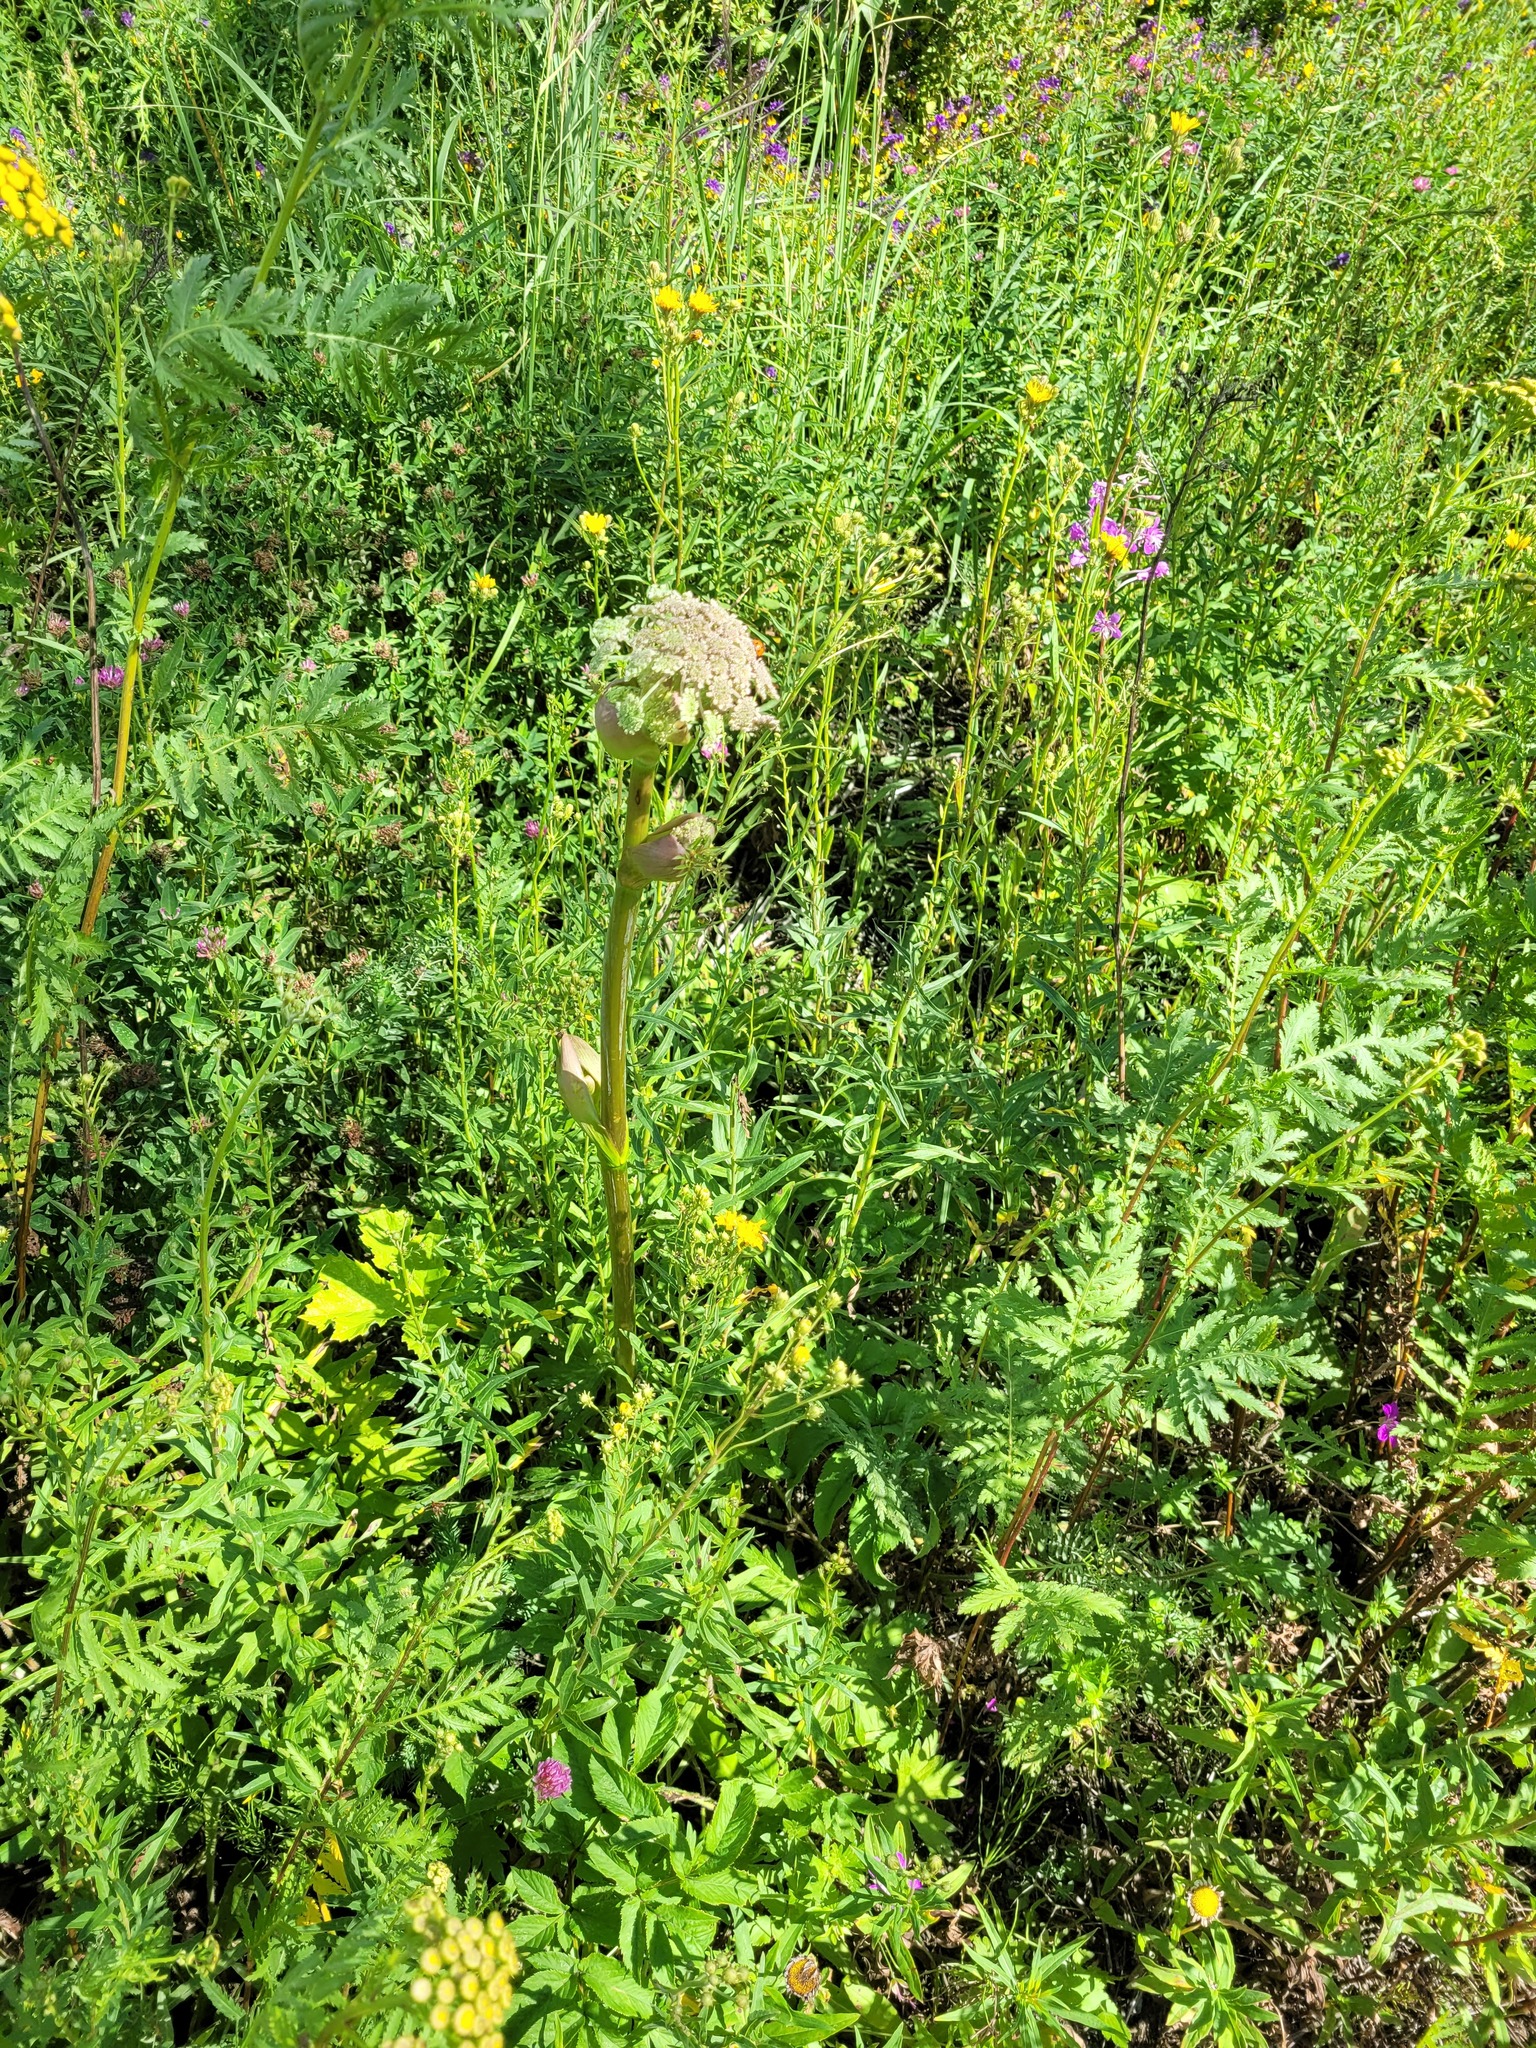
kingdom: Plantae
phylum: Tracheophyta
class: Magnoliopsida
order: Apiales
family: Apiaceae
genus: Angelica
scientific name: Angelica sylvestris
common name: Wild angelica
